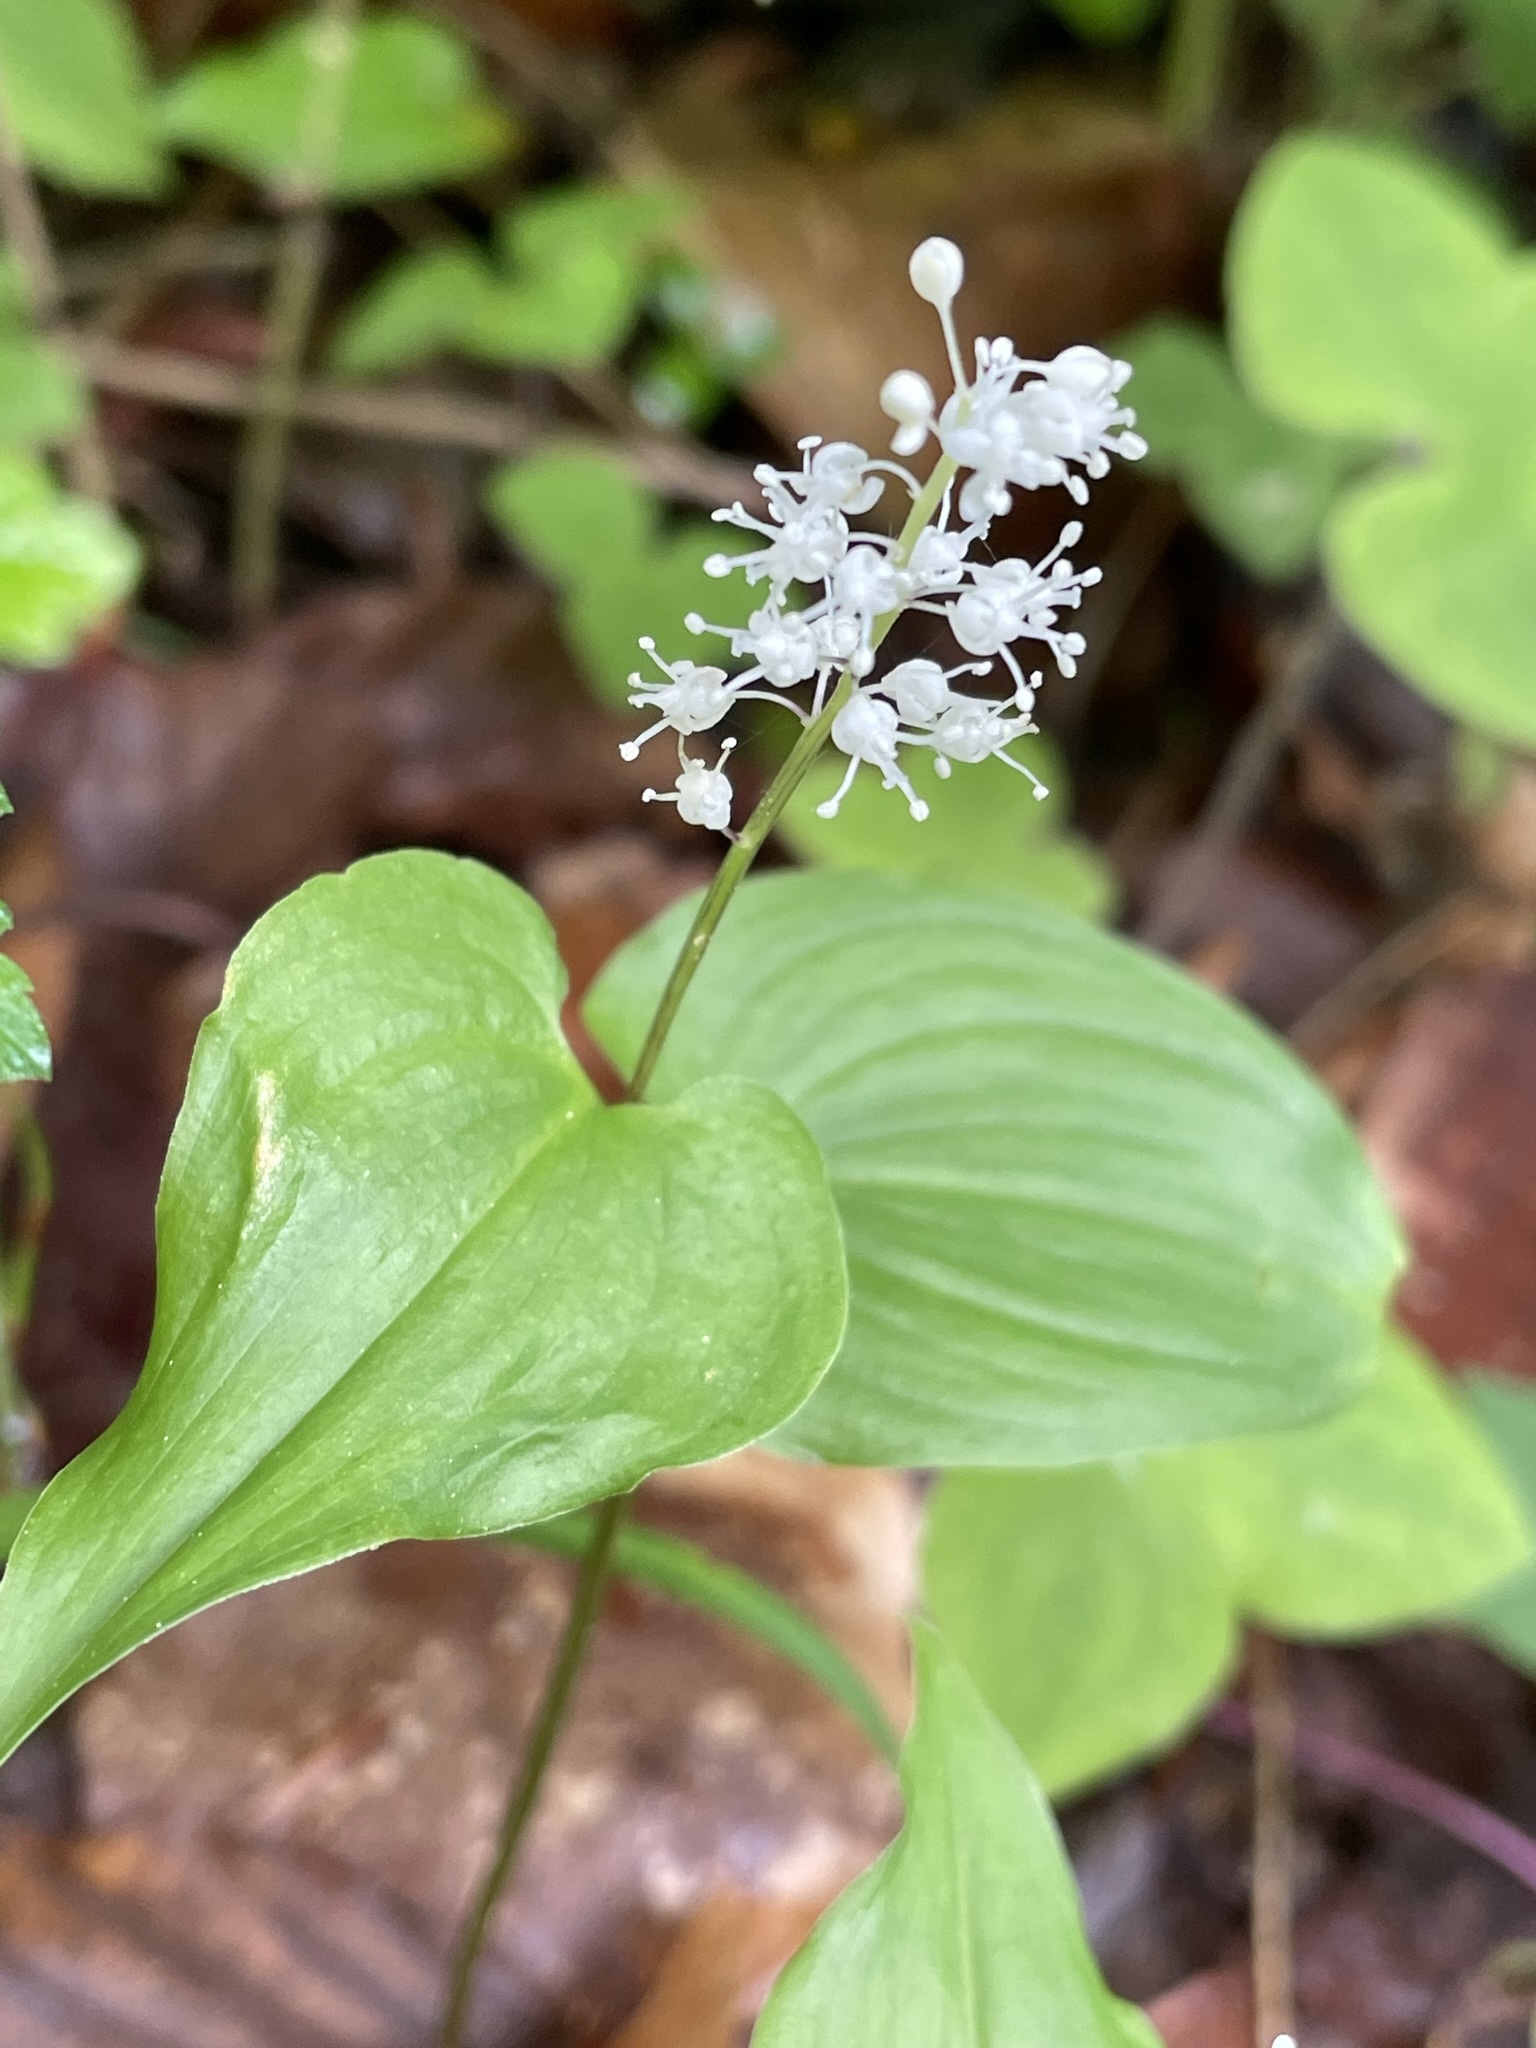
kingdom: Plantae
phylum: Tracheophyta
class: Liliopsida
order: Asparagales
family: Asparagaceae
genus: Maianthemum
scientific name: Maianthemum bifolium
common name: May lily
